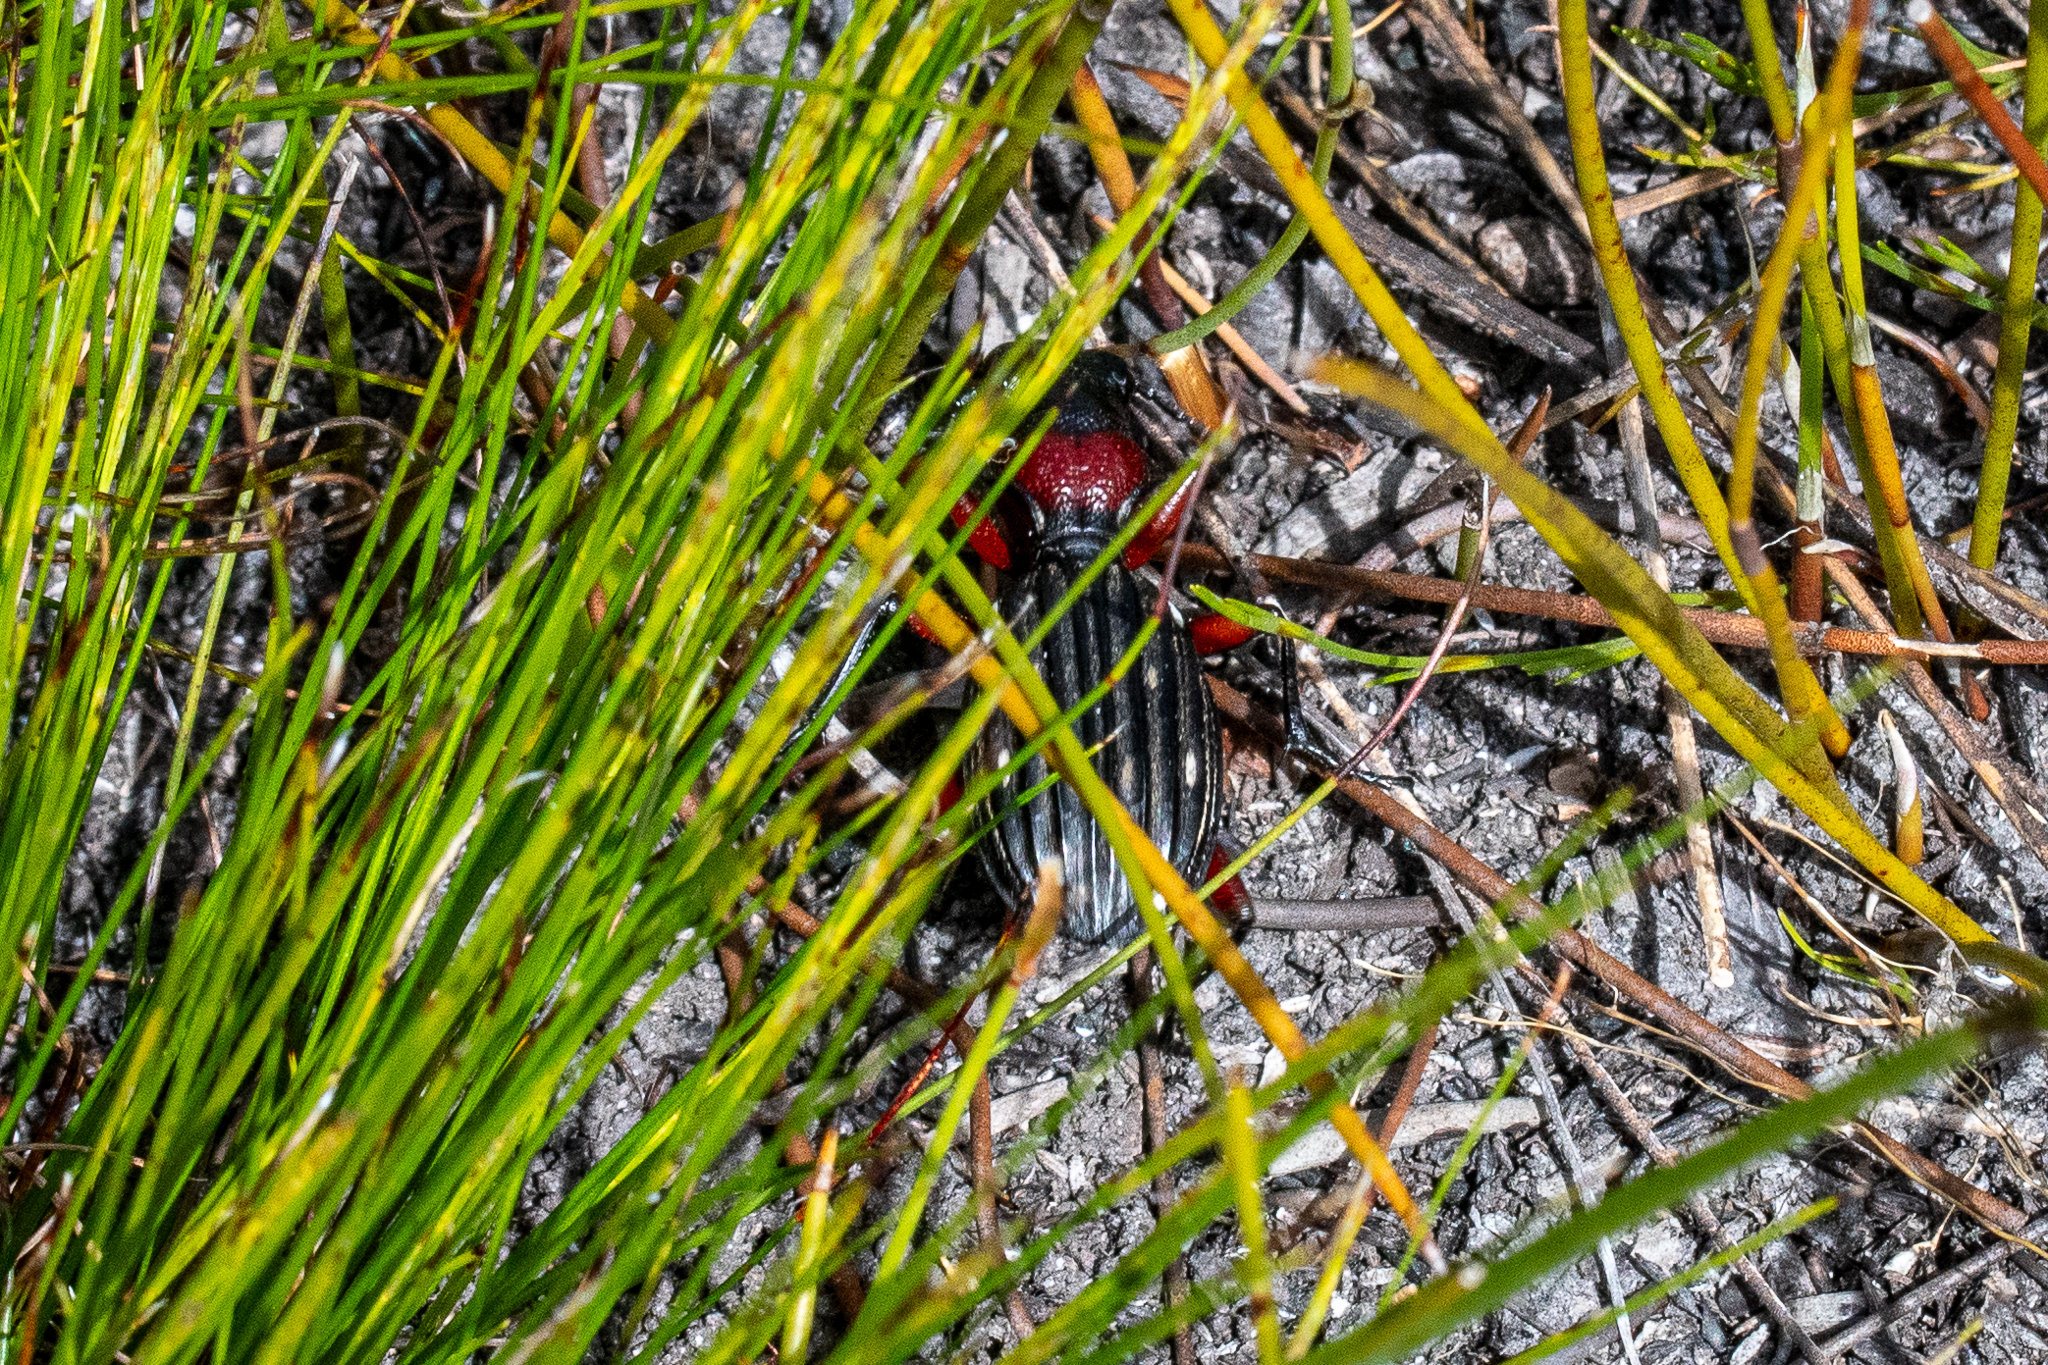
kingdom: Animalia
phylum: Arthropoda
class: Insecta
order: Coleoptera
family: Carabidae
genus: Anthia
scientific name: Anthia decemguttata
